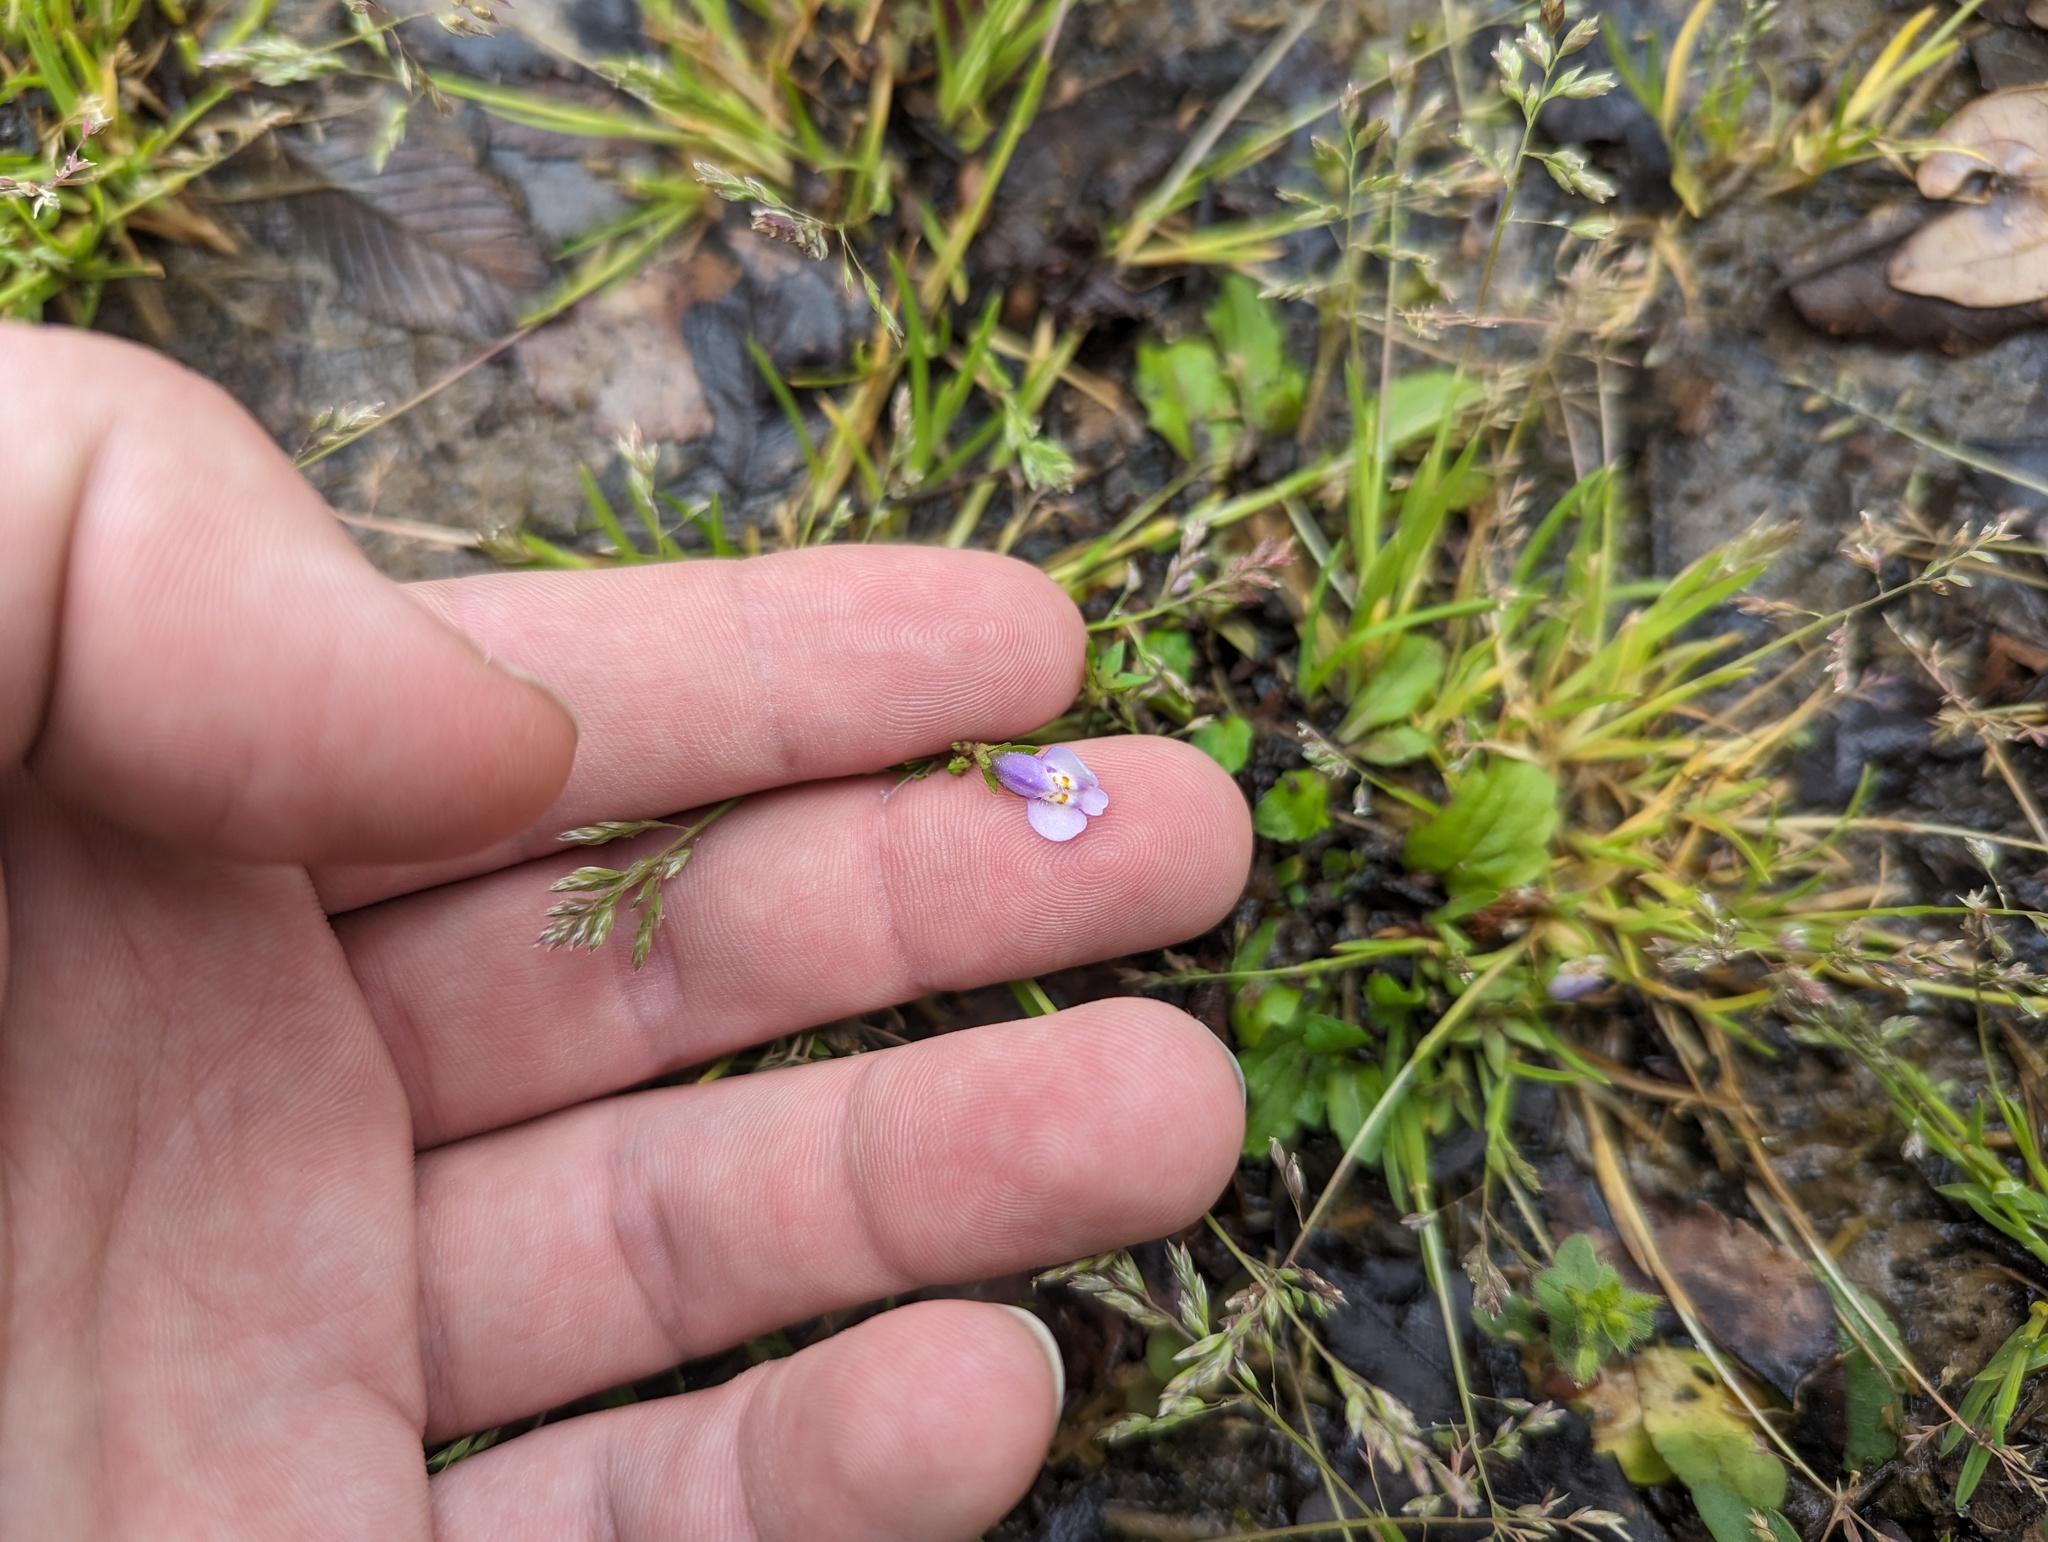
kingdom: Plantae
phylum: Tracheophyta
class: Magnoliopsida
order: Lamiales
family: Mazaceae
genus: Mazus
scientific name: Mazus pumilus
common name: Japanese mazus
